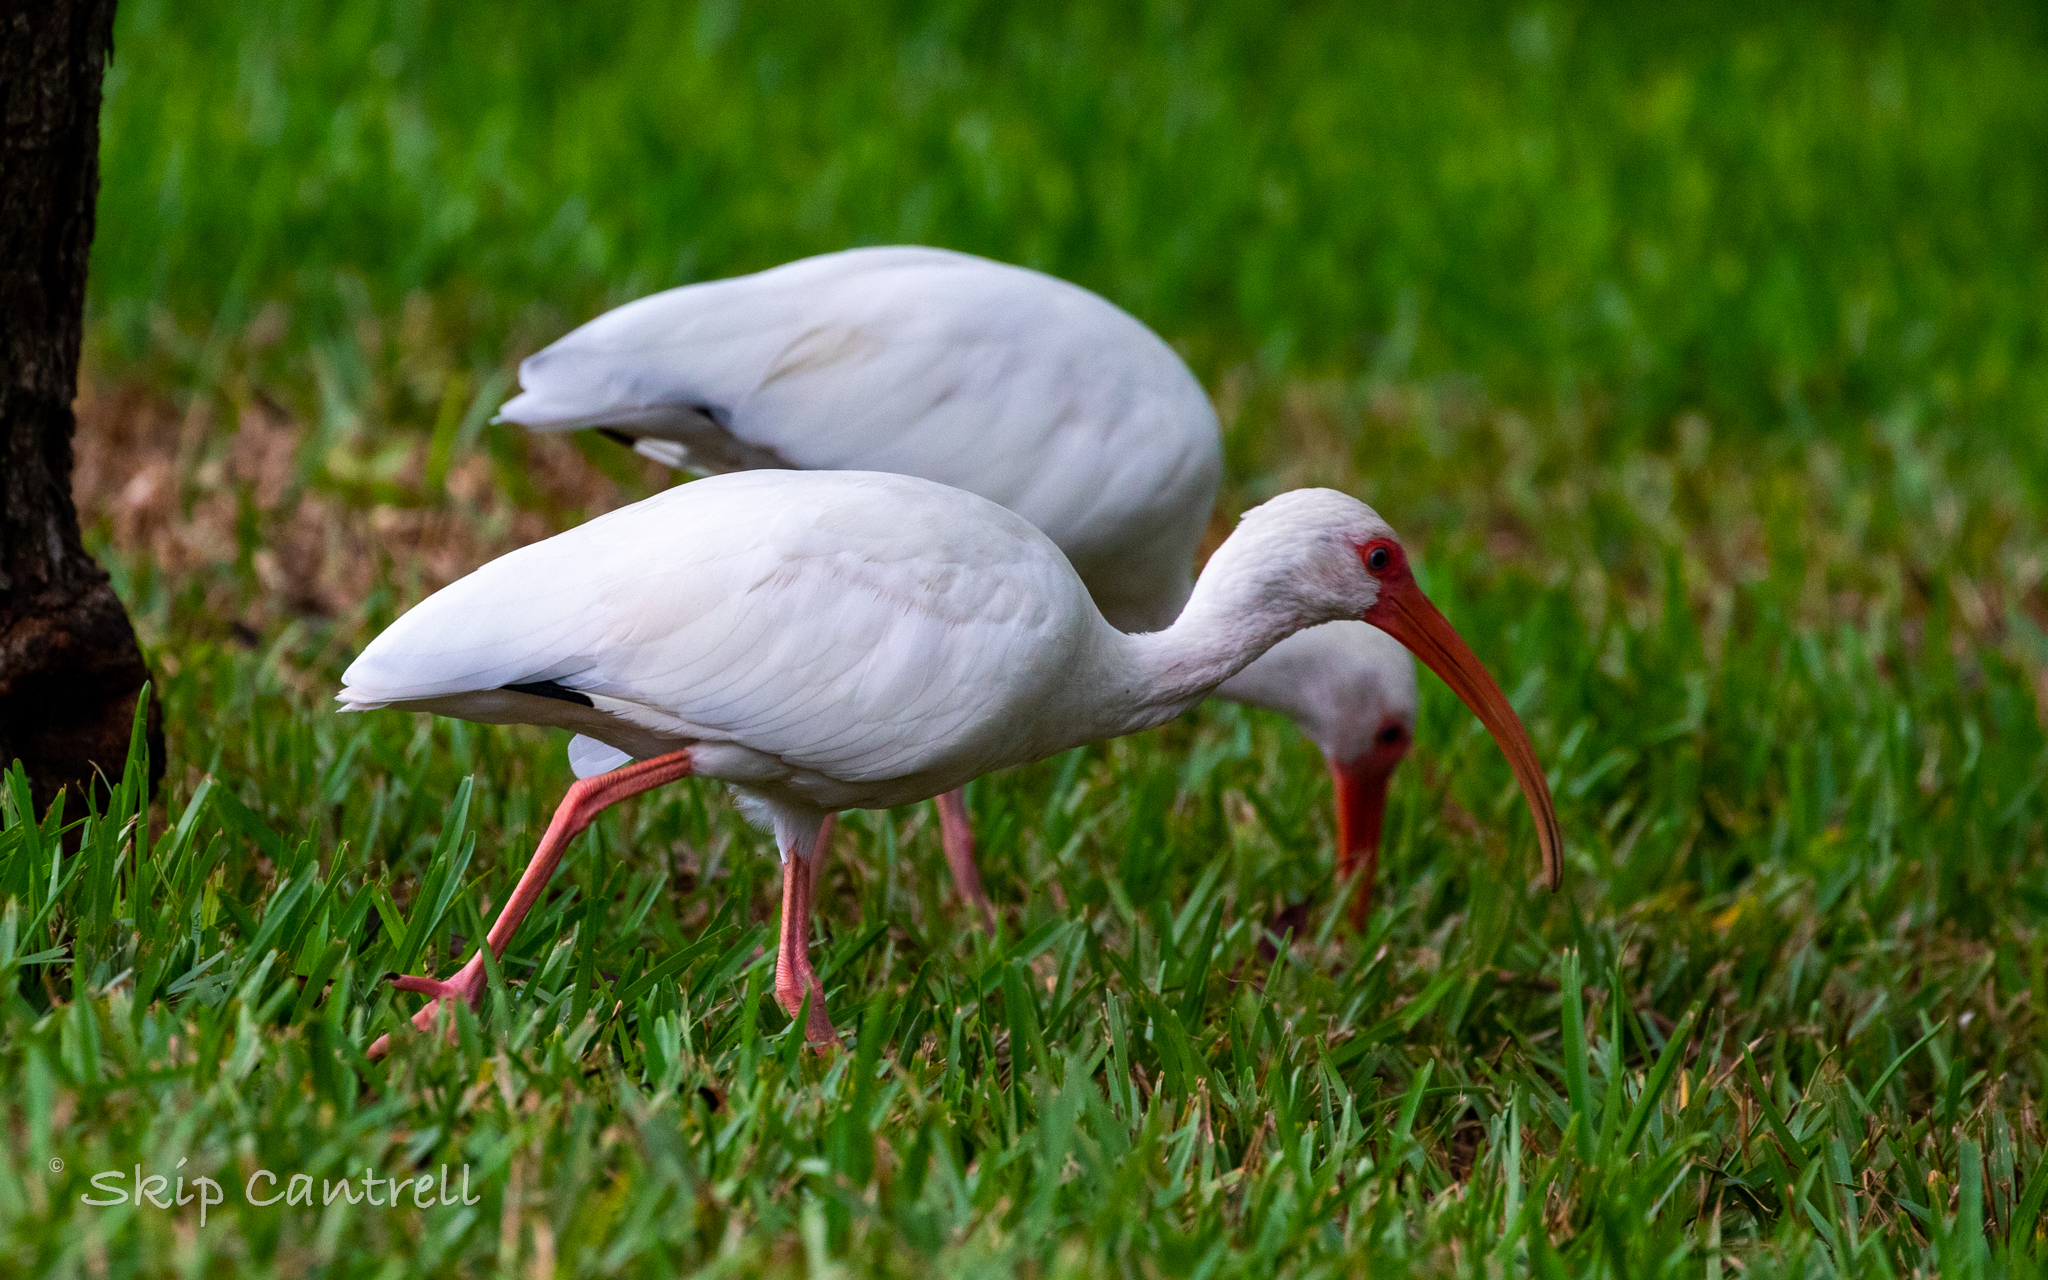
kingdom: Animalia
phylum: Chordata
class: Aves
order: Pelecaniformes
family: Threskiornithidae
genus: Eudocimus
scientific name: Eudocimus albus
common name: White ibis
